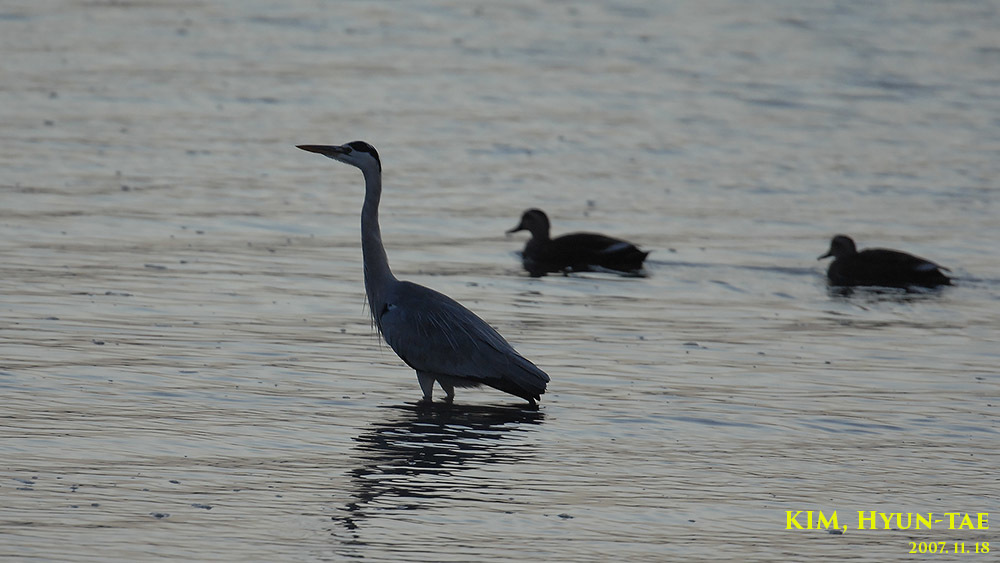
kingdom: Animalia
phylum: Chordata
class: Aves
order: Pelecaniformes
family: Ardeidae
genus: Ardea
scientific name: Ardea cinerea
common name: Grey heron
